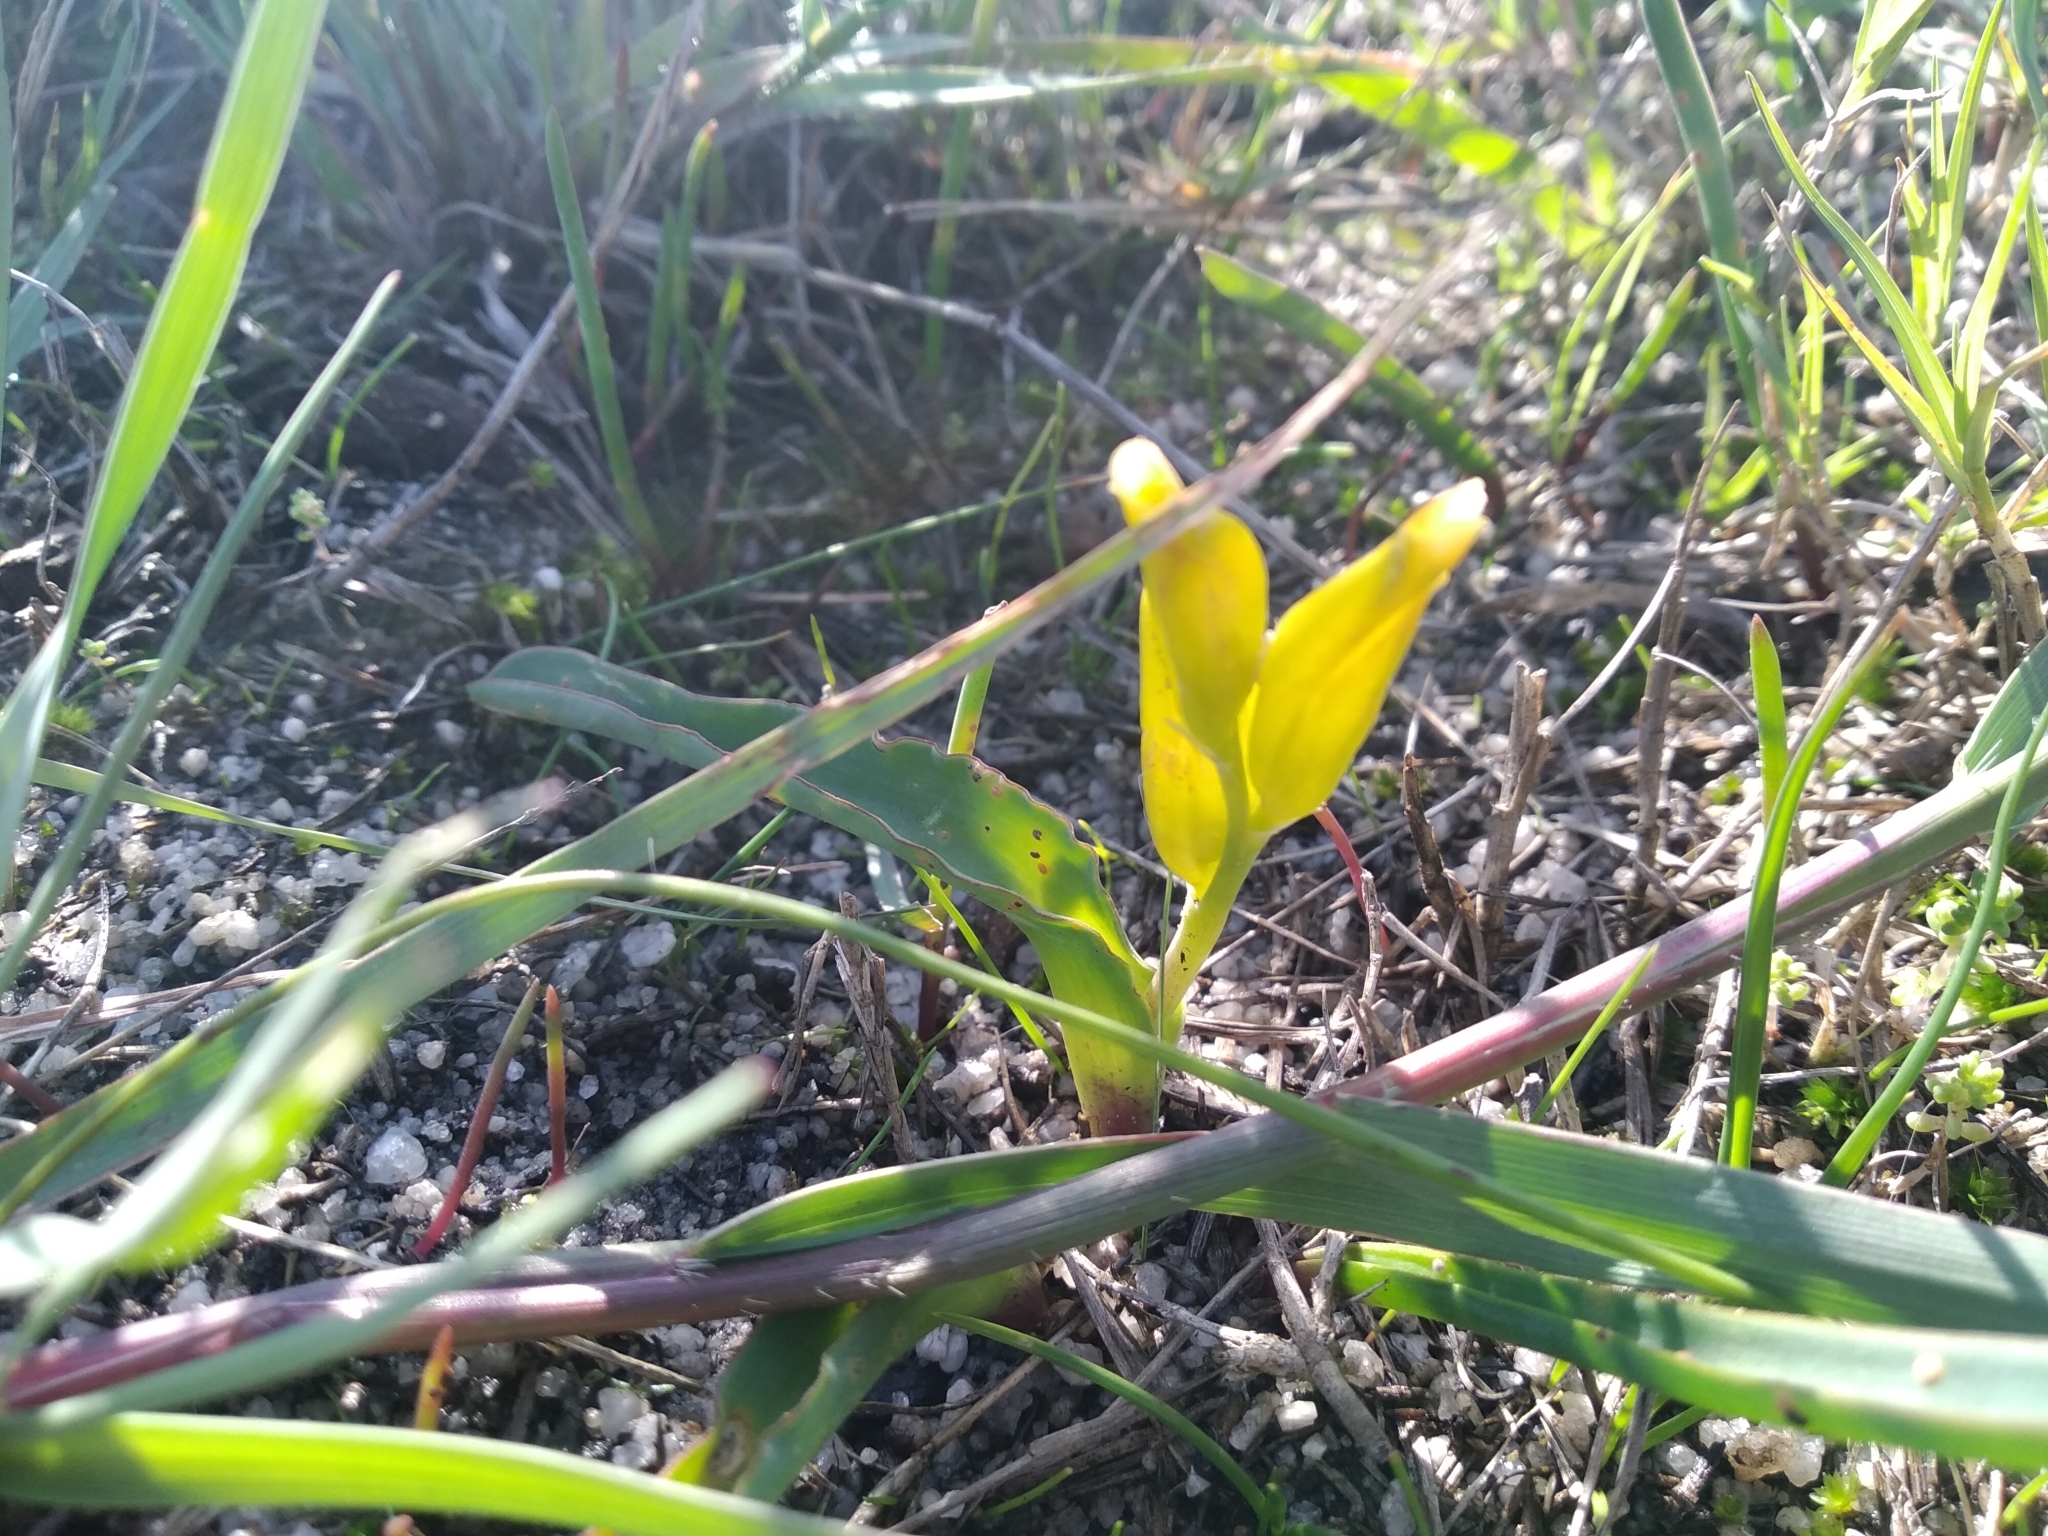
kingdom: Plantae
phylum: Tracheophyta
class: Liliopsida
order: Asparagales
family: Asparagaceae
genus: Lachenalia
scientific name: Lachenalia reflexa
